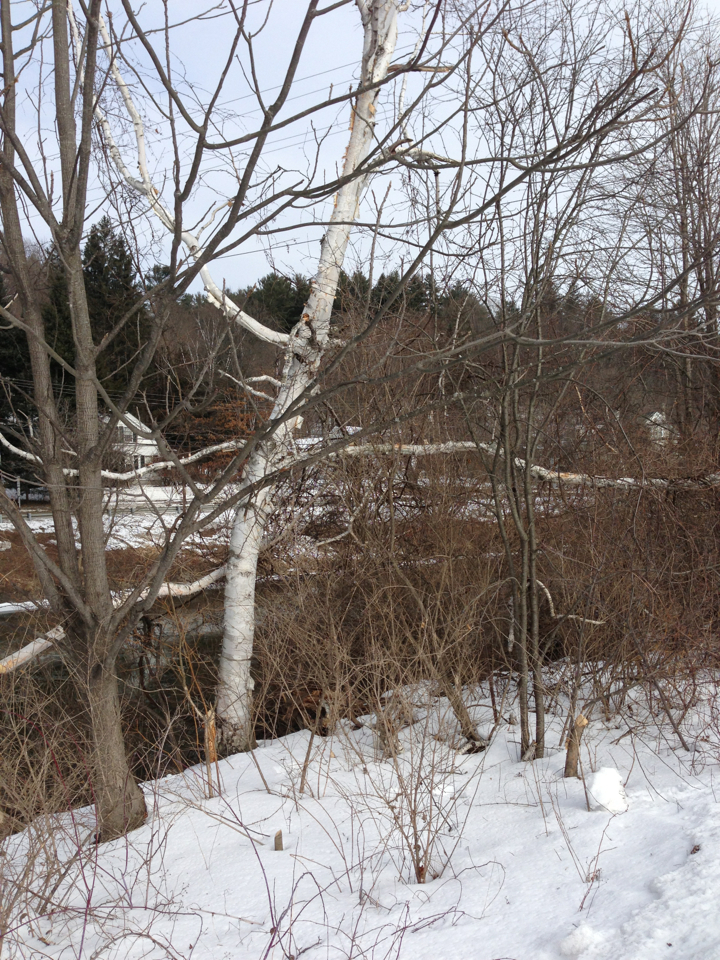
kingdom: Plantae
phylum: Tracheophyta
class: Magnoliopsida
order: Fagales
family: Betulaceae
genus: Betula
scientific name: Betula papyrifera
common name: Paper birch
